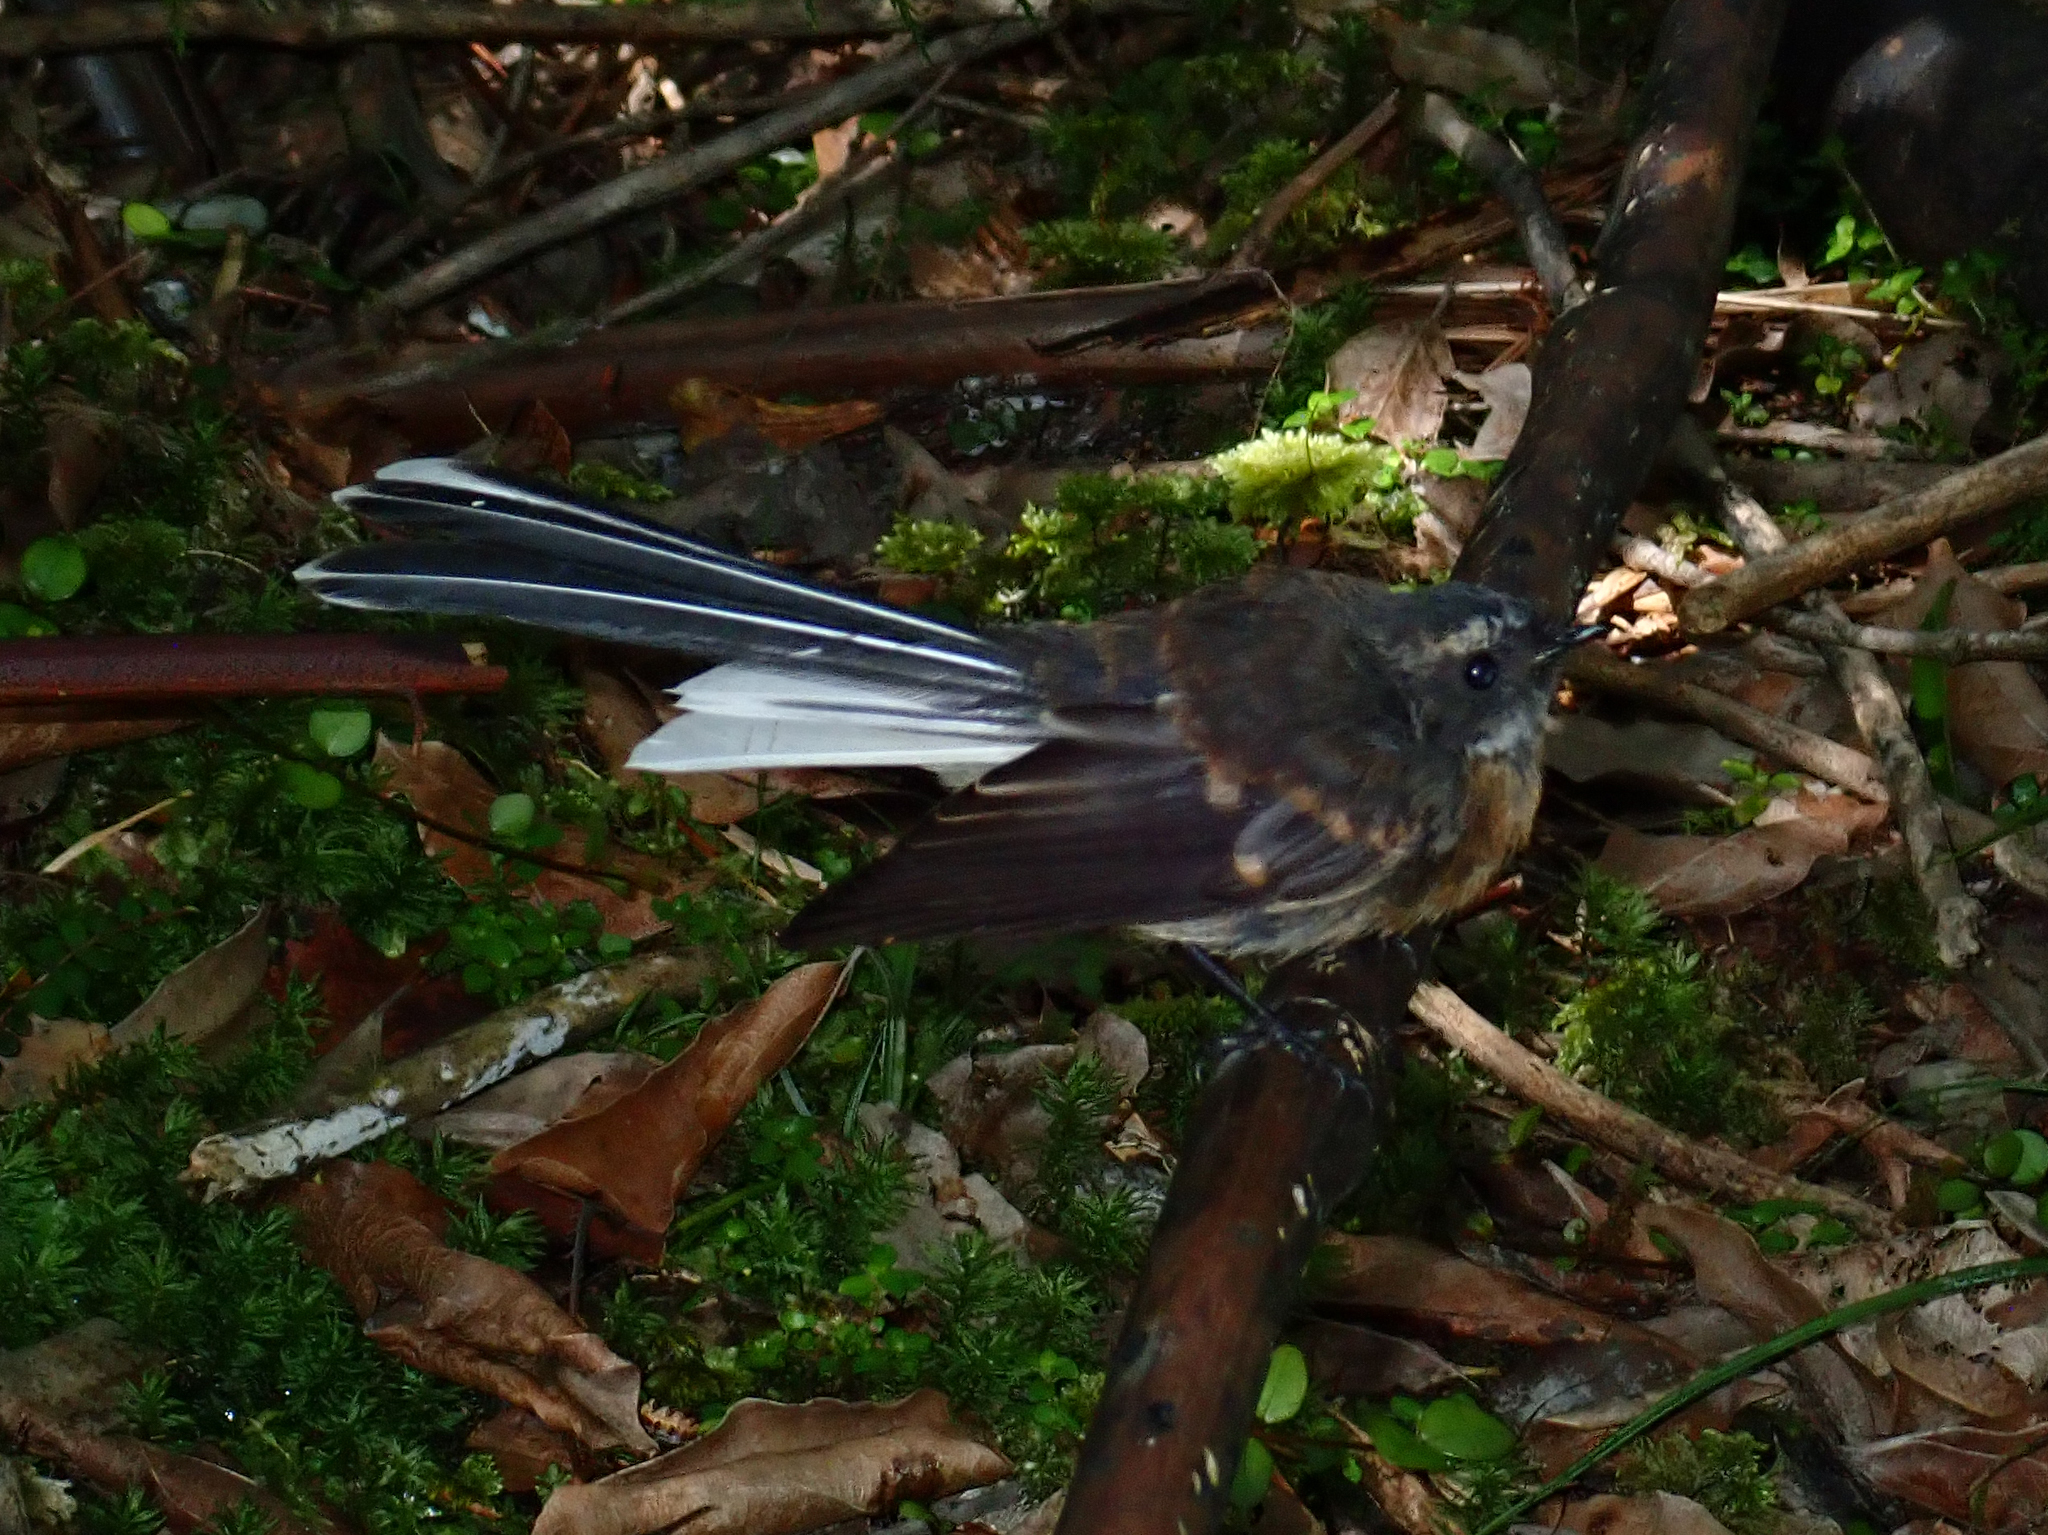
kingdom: Animalia
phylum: Chordata
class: Aves
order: Passeriformes
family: Rhipiduridae
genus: Rhipidura
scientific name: Rhipidura fuliginosa
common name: New zealand fantail
